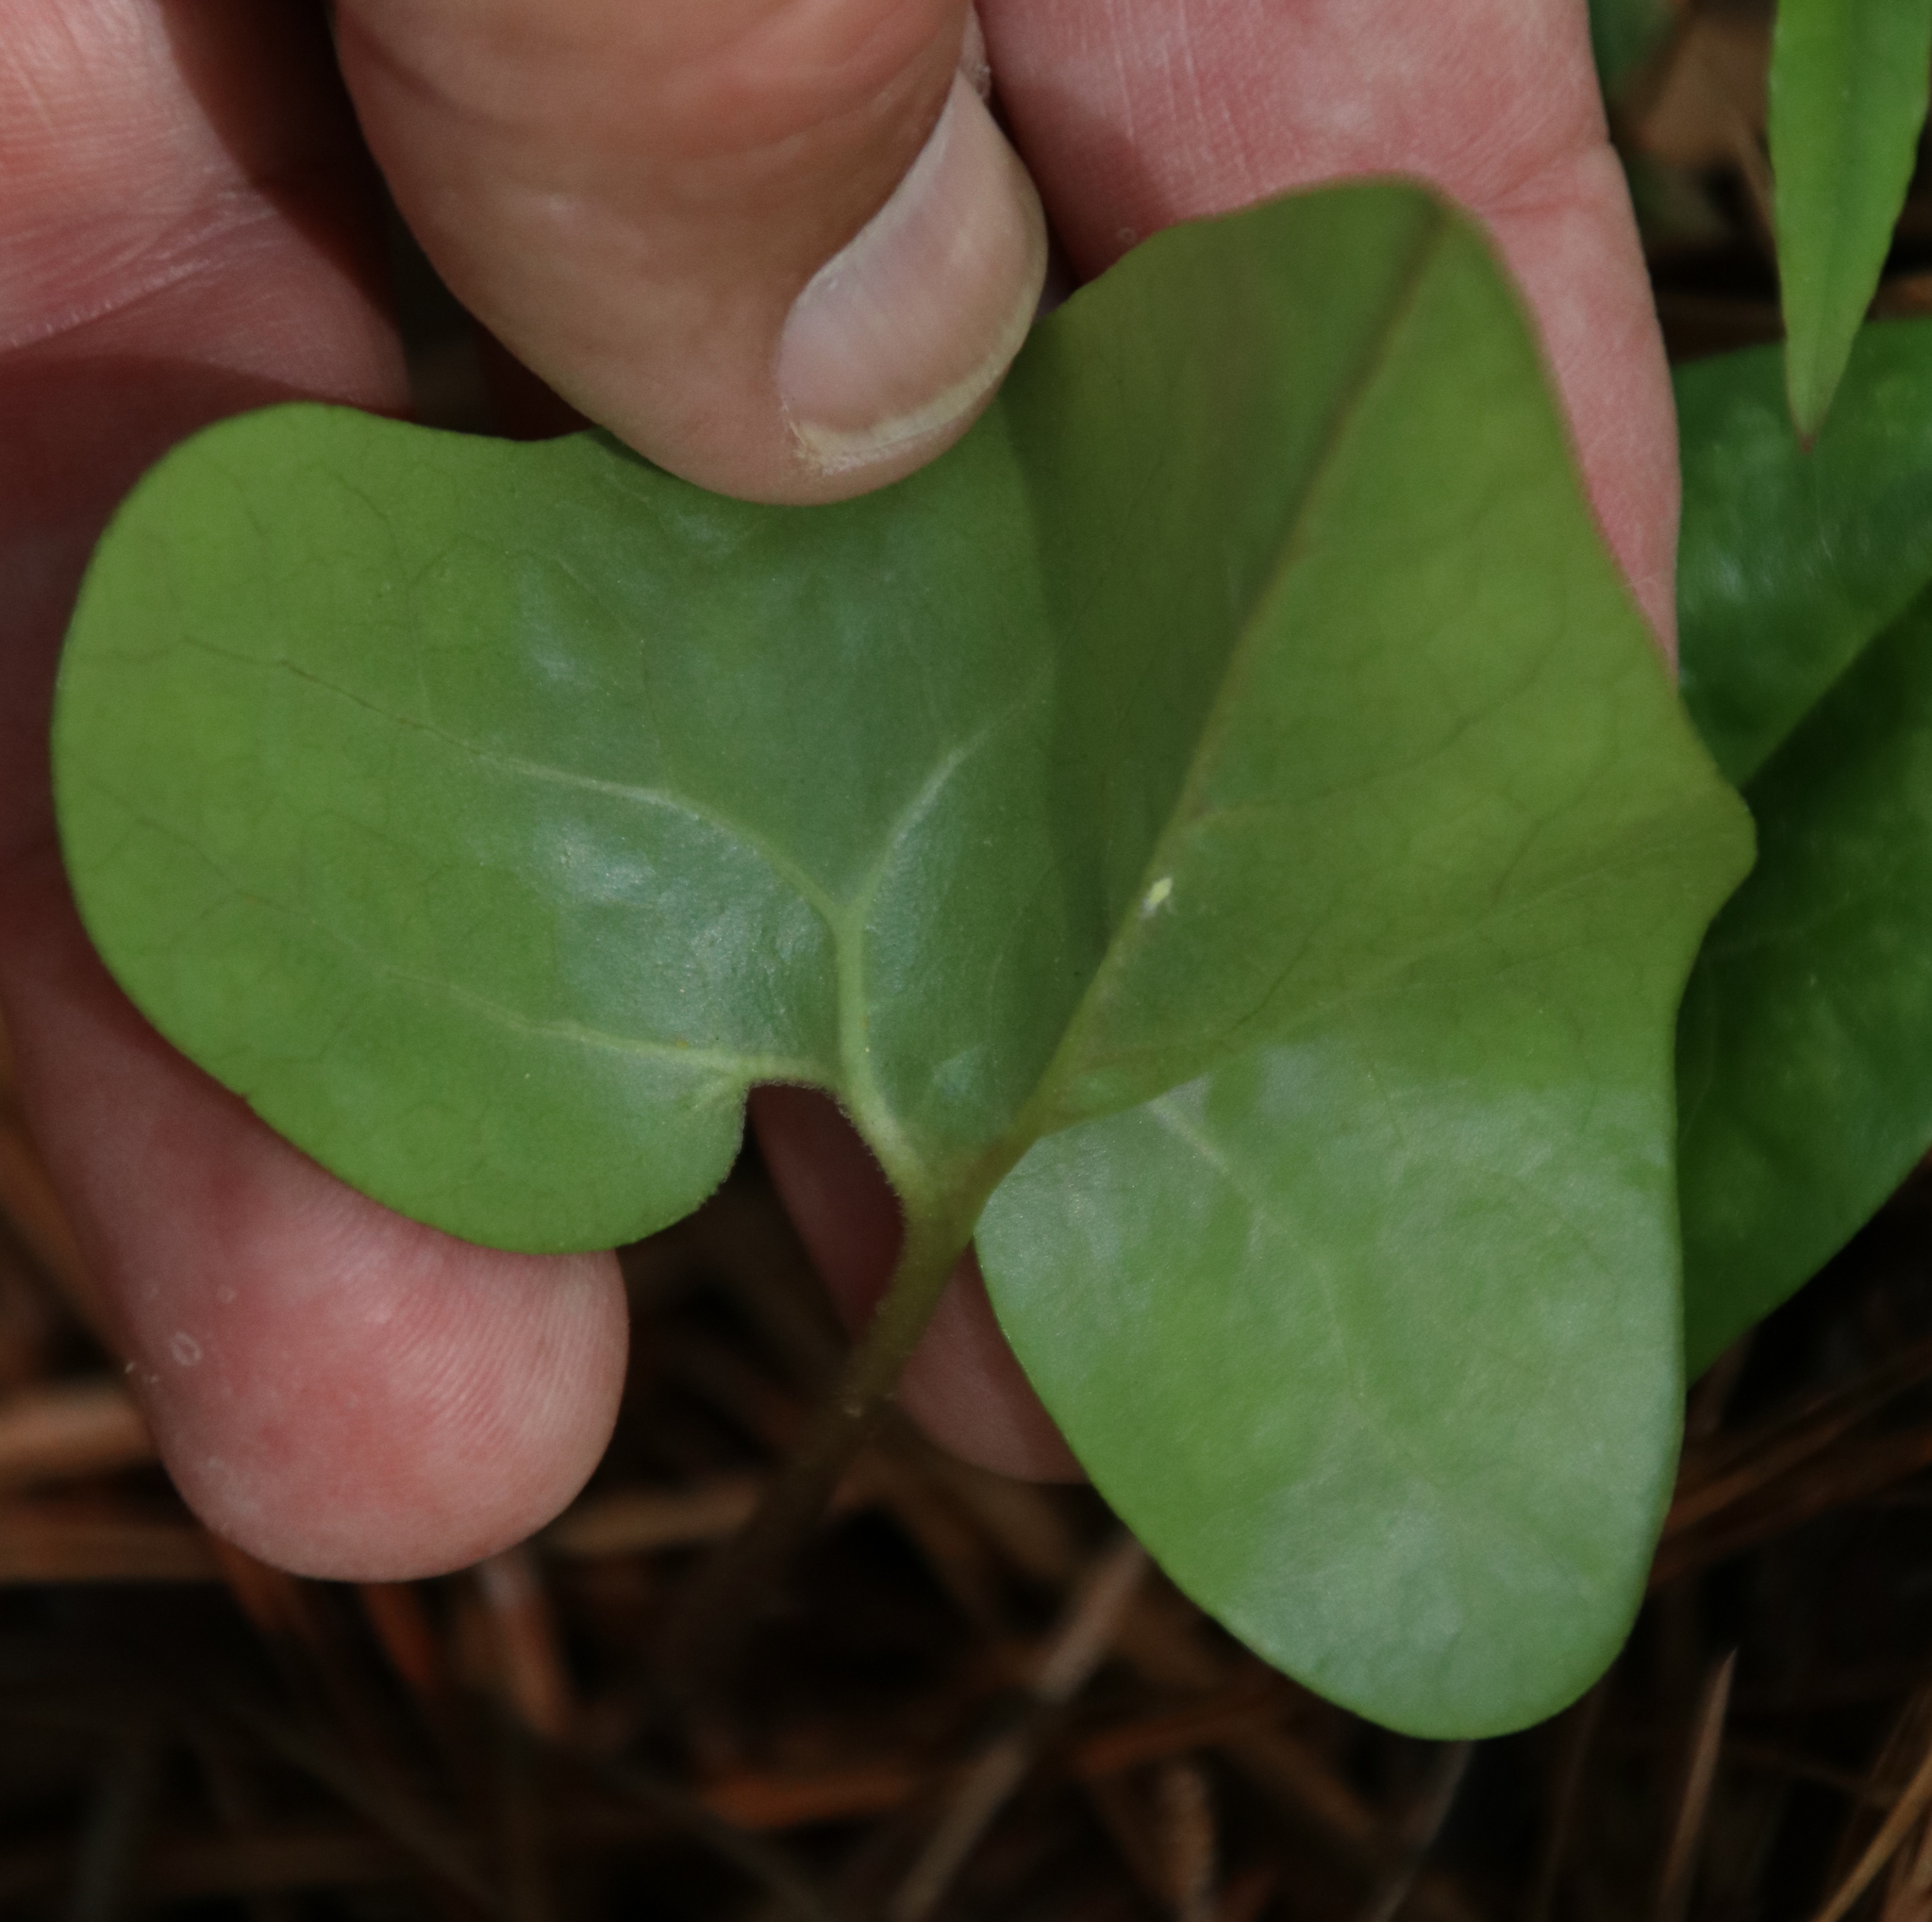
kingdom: Plantae
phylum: Tracheophyta
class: Magnoliopsida
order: Piperales
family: Aristolochiaceae
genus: Hexastylis
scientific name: Hexastylis arifolia
